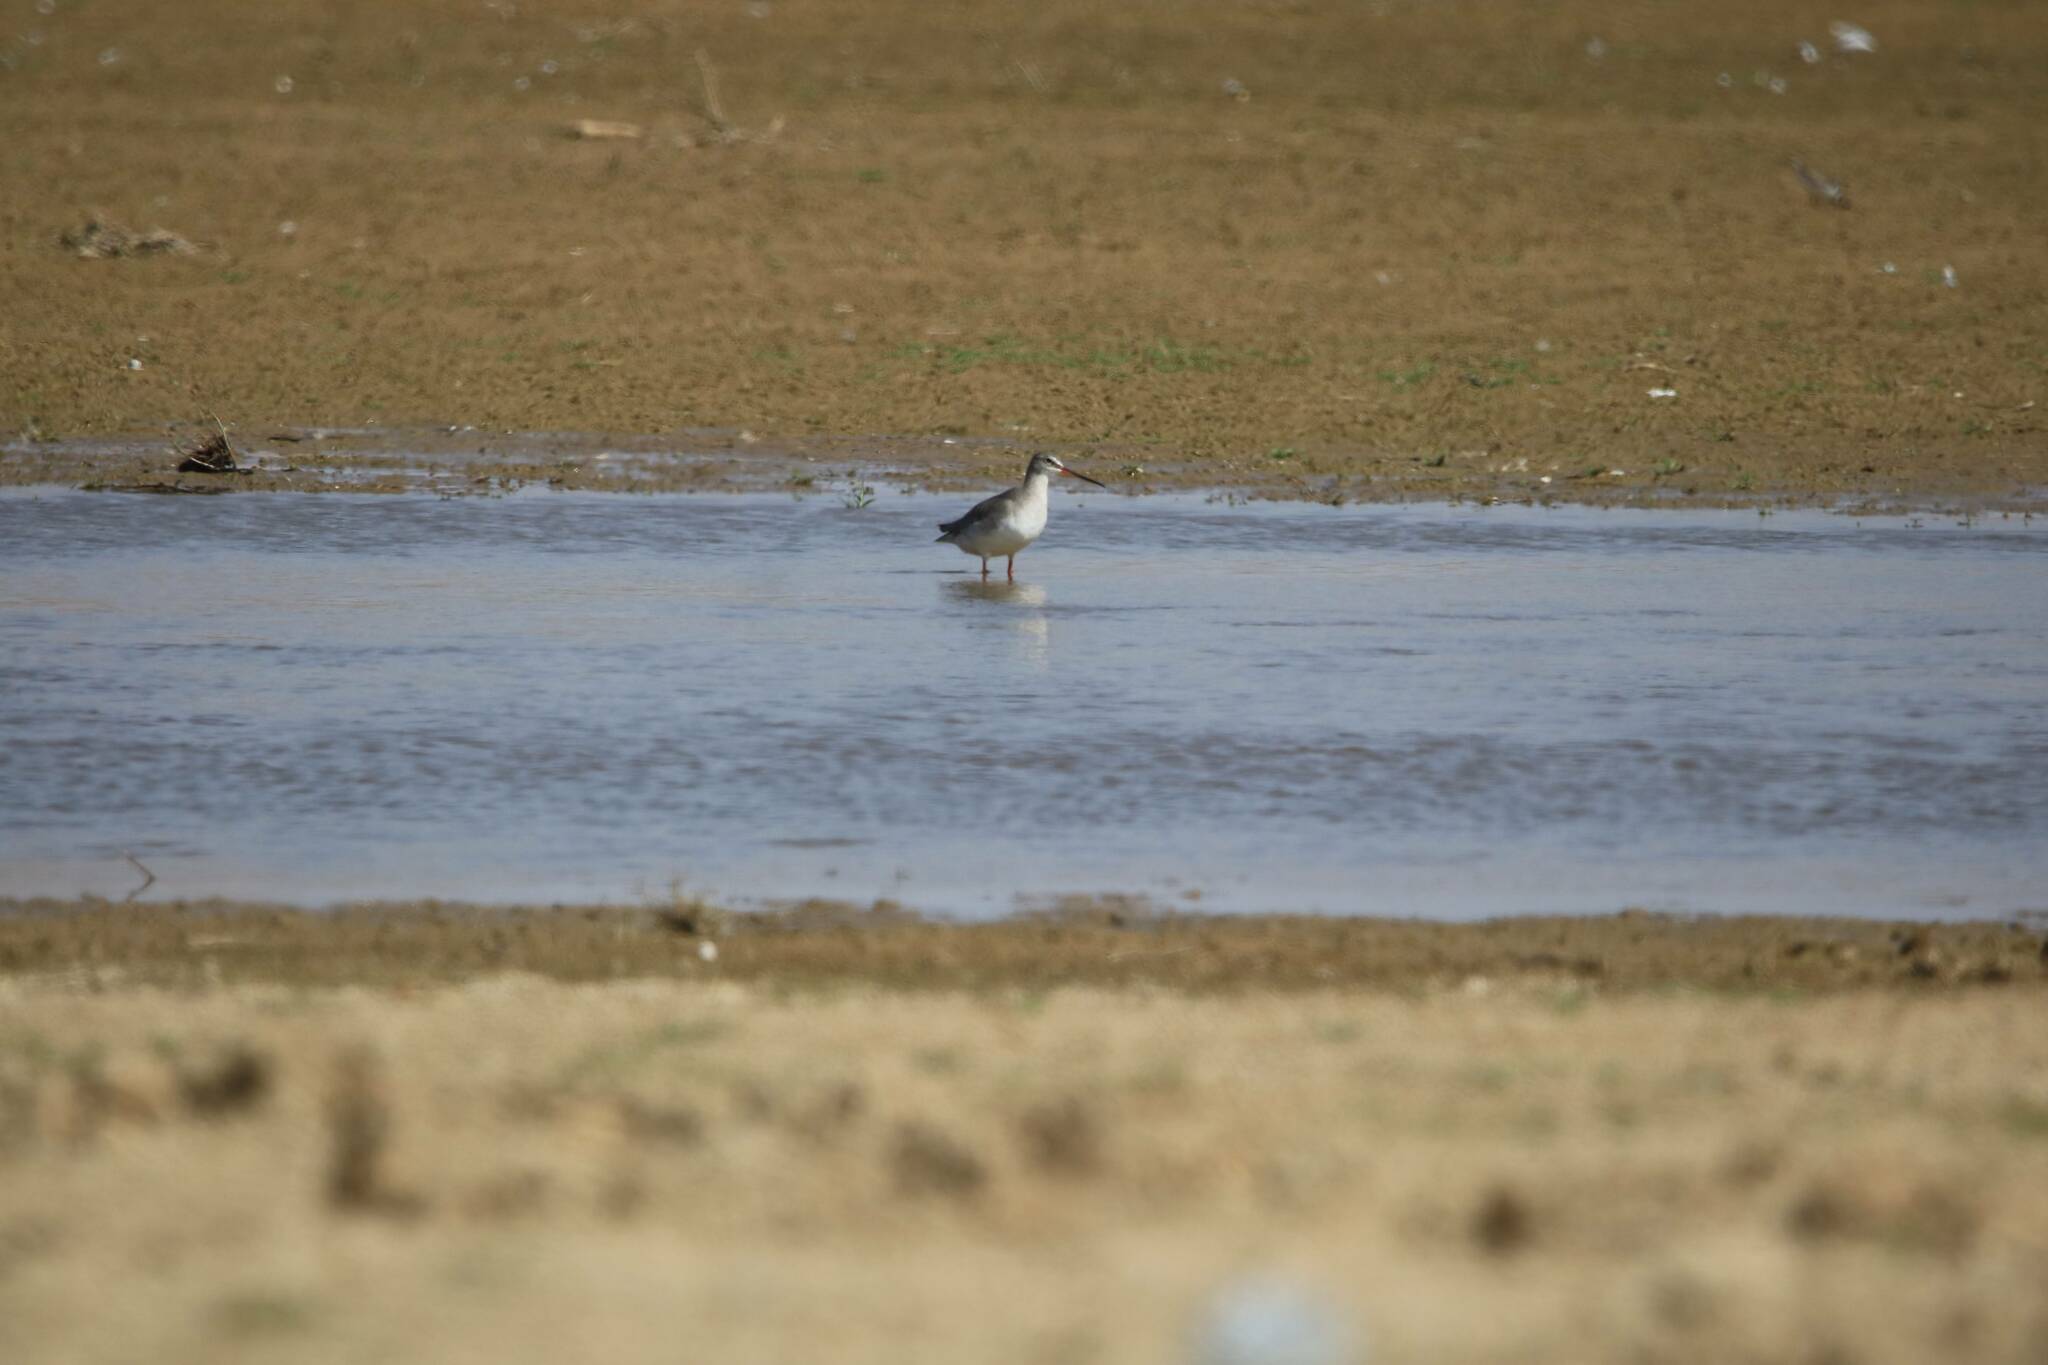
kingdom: Animalia
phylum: Chordata
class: Aves
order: Charadriiformes
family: Scolopacidae
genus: Tringa
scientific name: Tringa erythropus
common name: Spotted redshank
